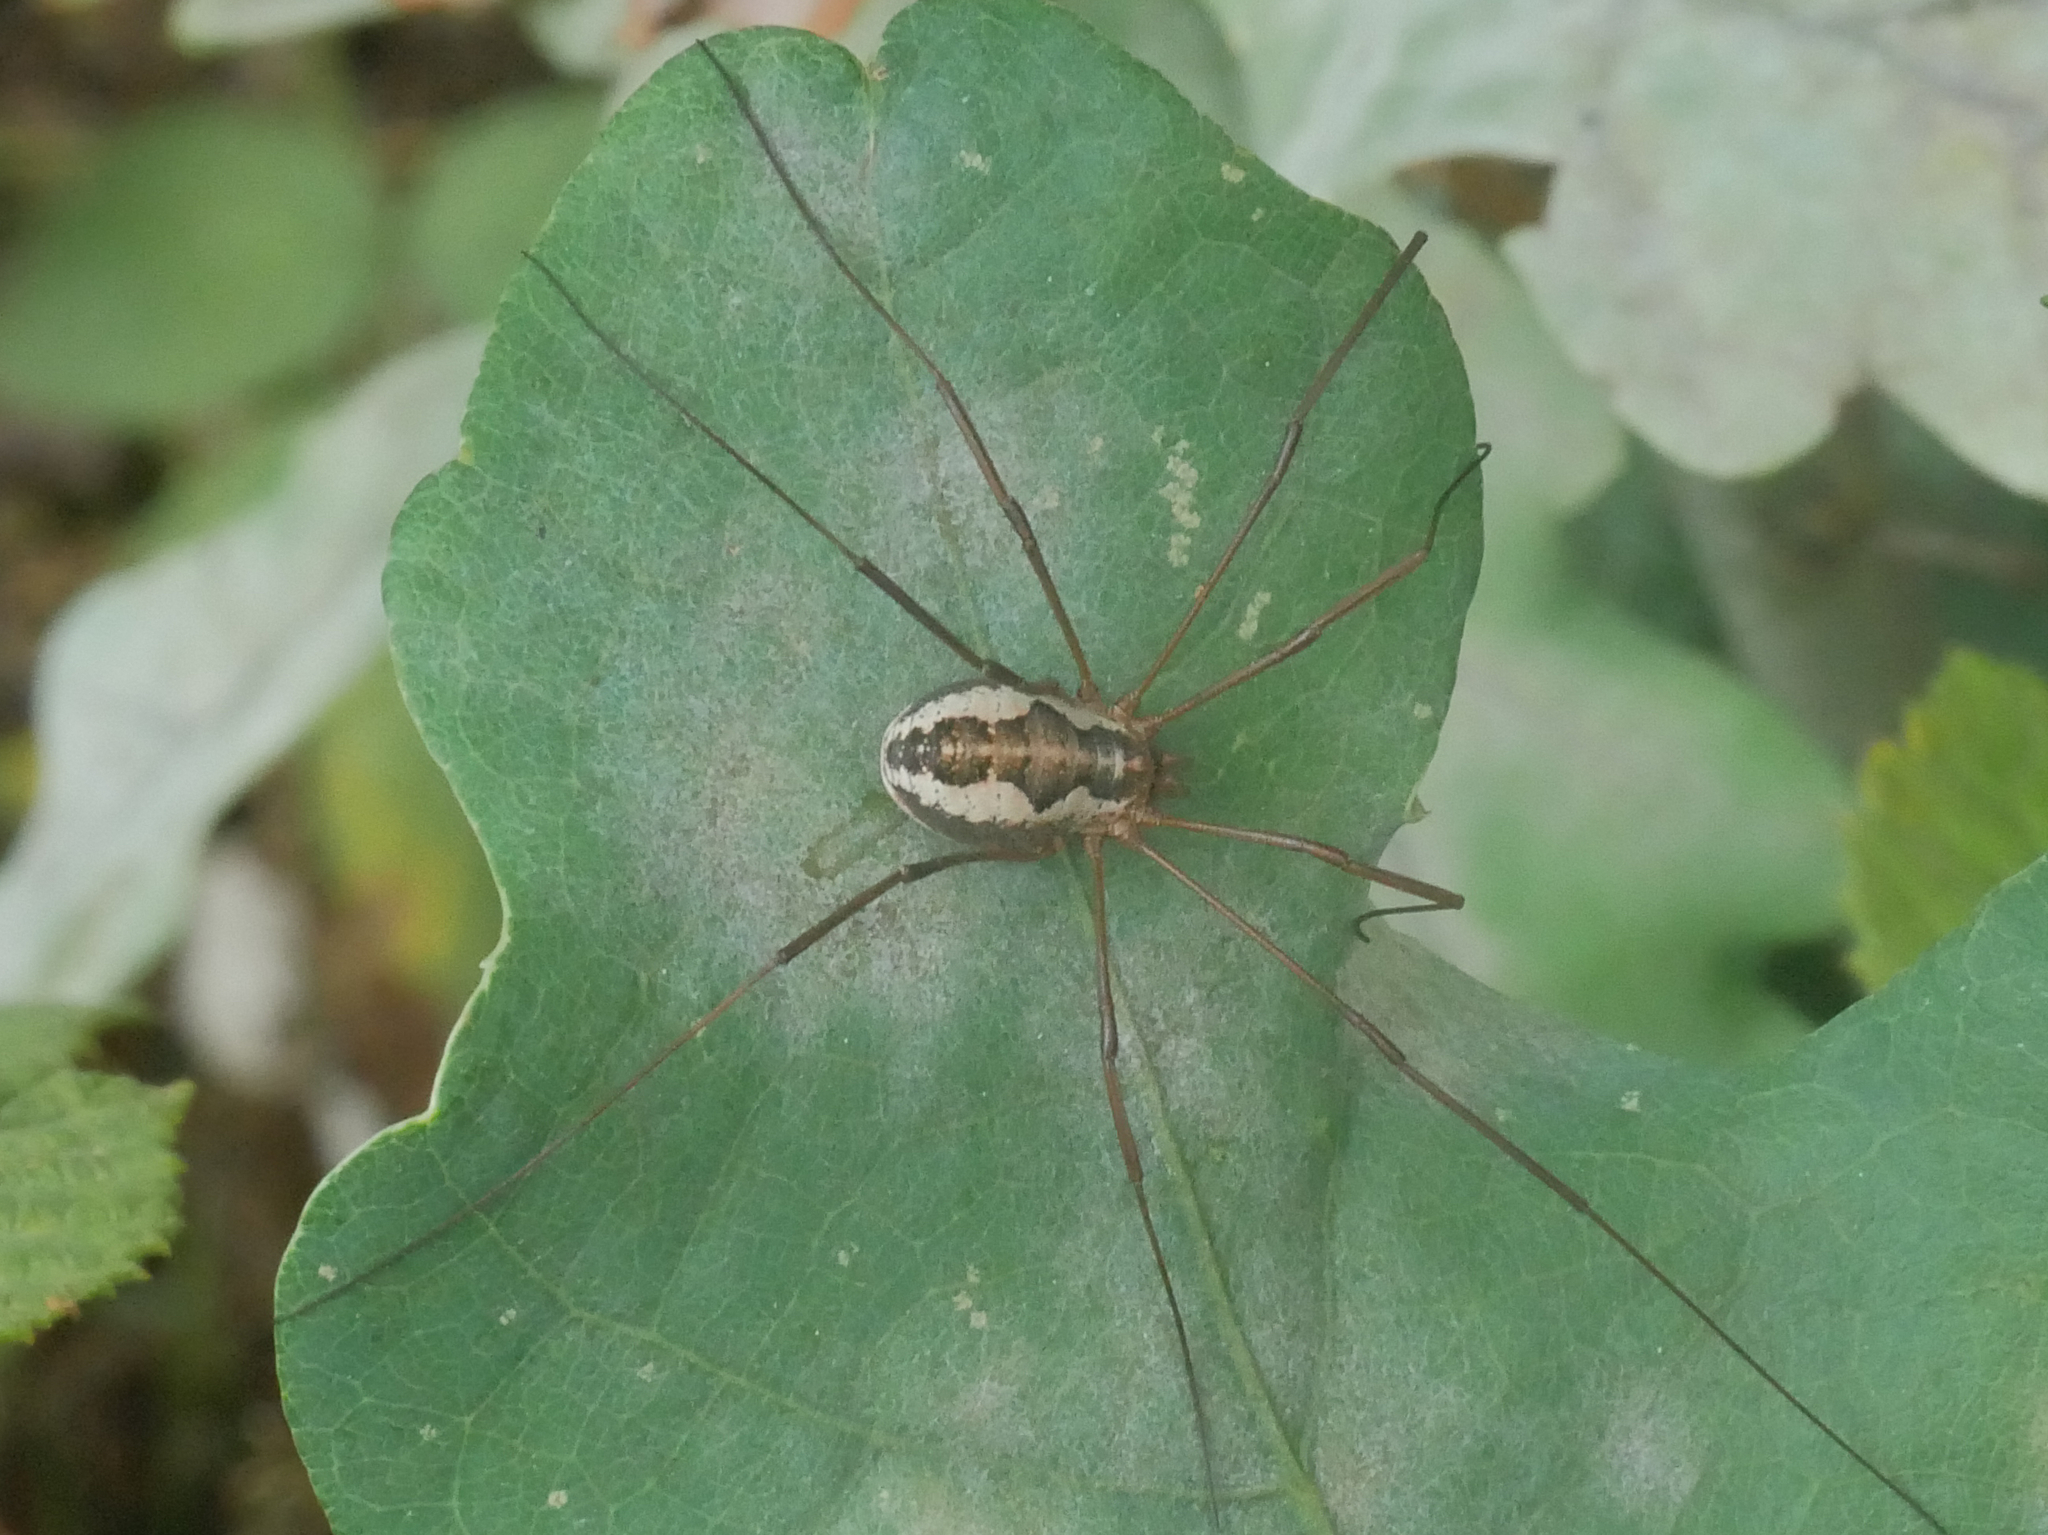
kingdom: Animalia
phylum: Arthropoda
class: Arachnida
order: Opiliones
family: Phalangiidae
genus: Phalangium
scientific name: Phalangium opilio
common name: Daddy longleg
